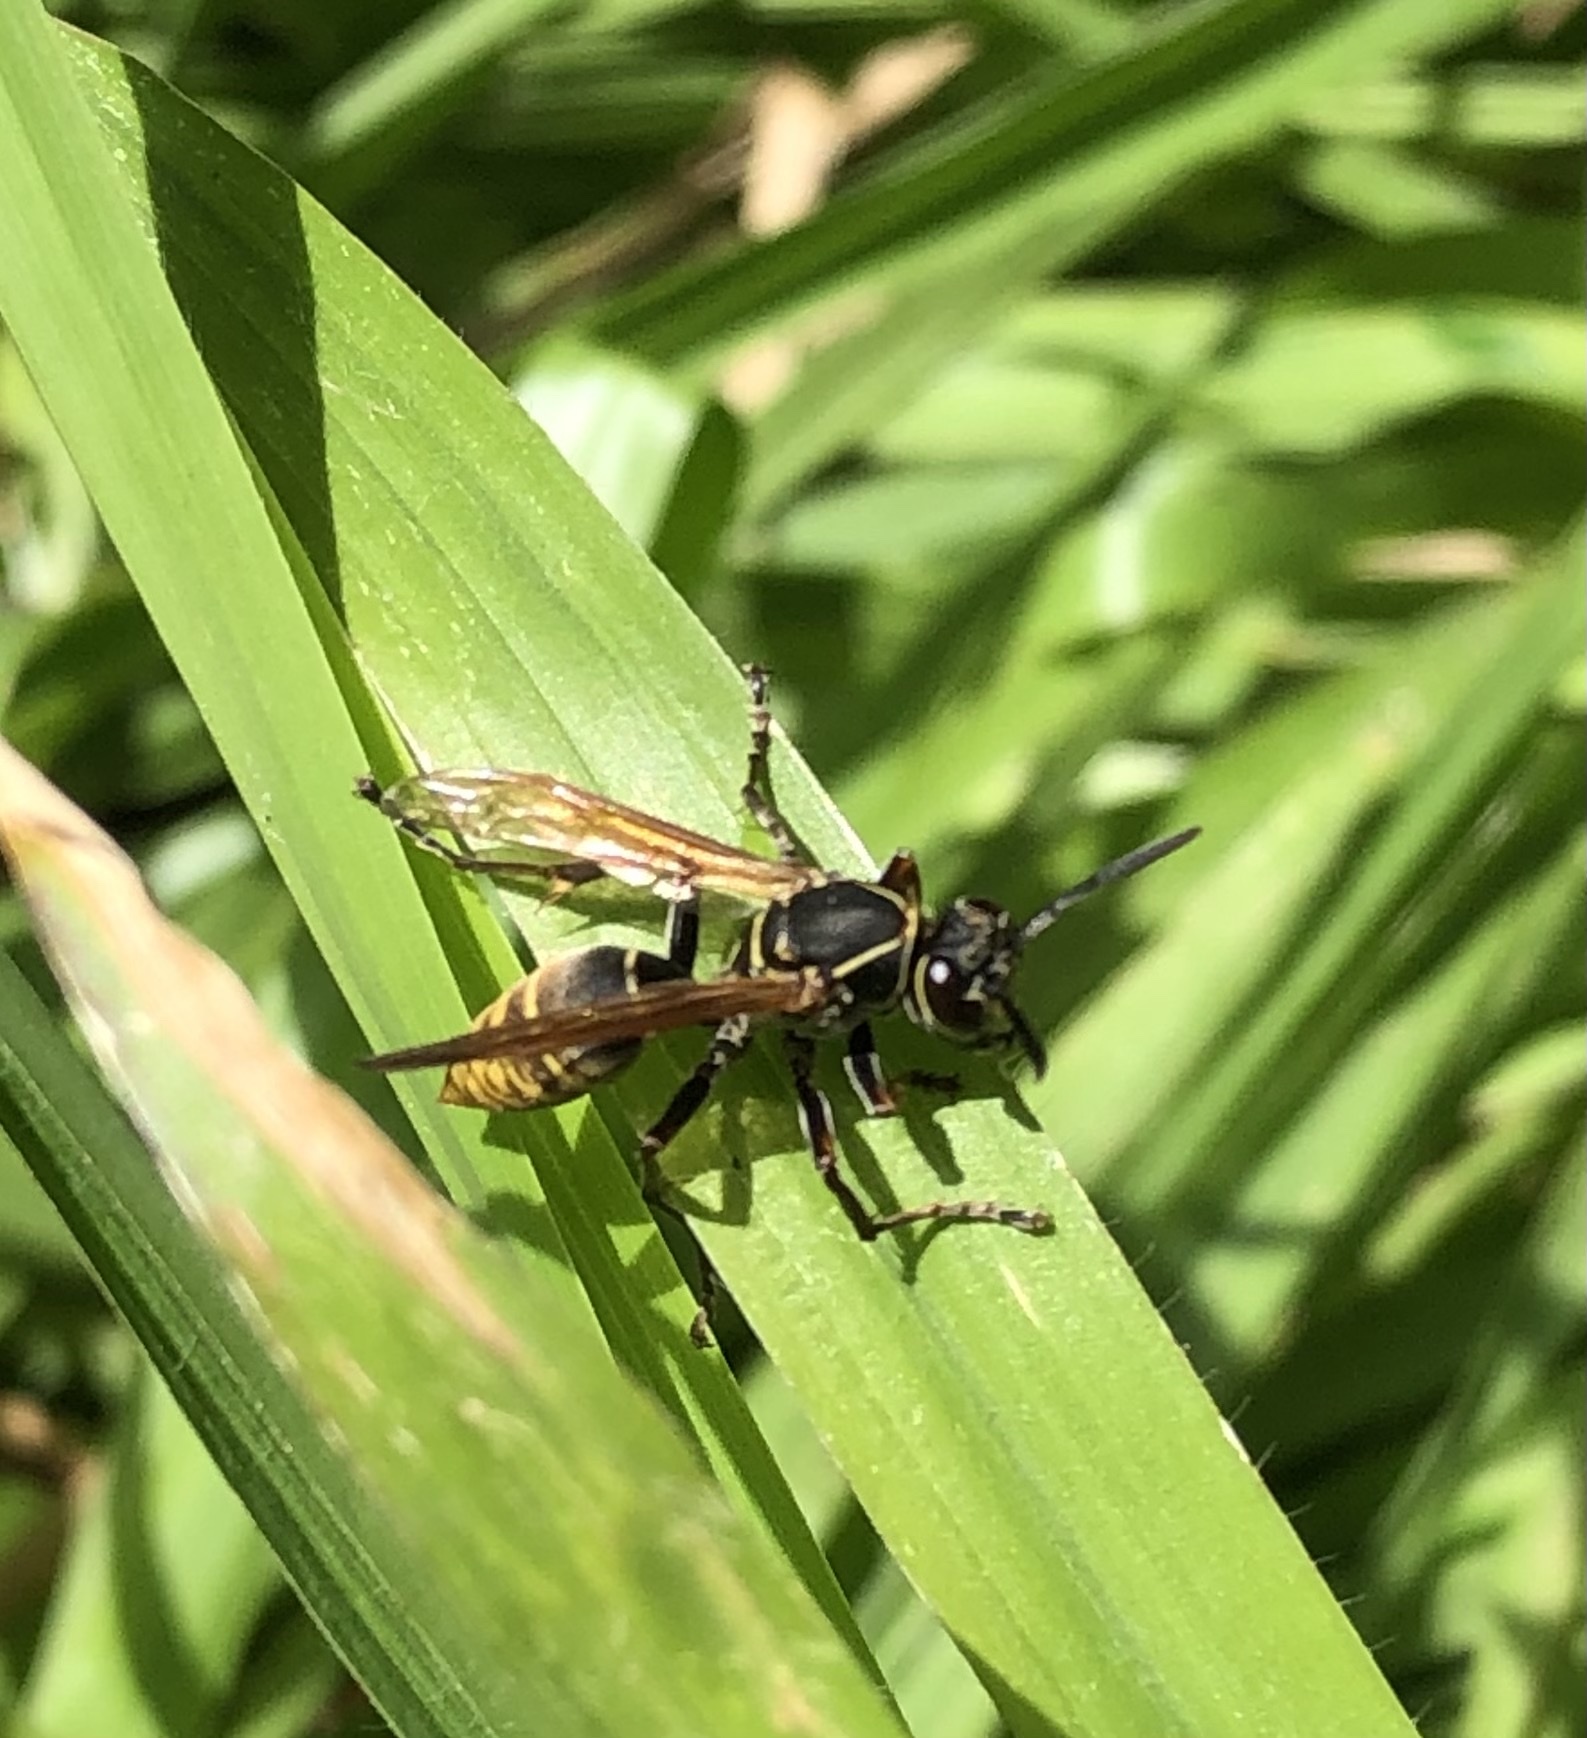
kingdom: Animalia
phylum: Arthropoda
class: Insecta
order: Hymenoptera
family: Eumenidae
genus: Polistes
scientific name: Polistes cinerascens
